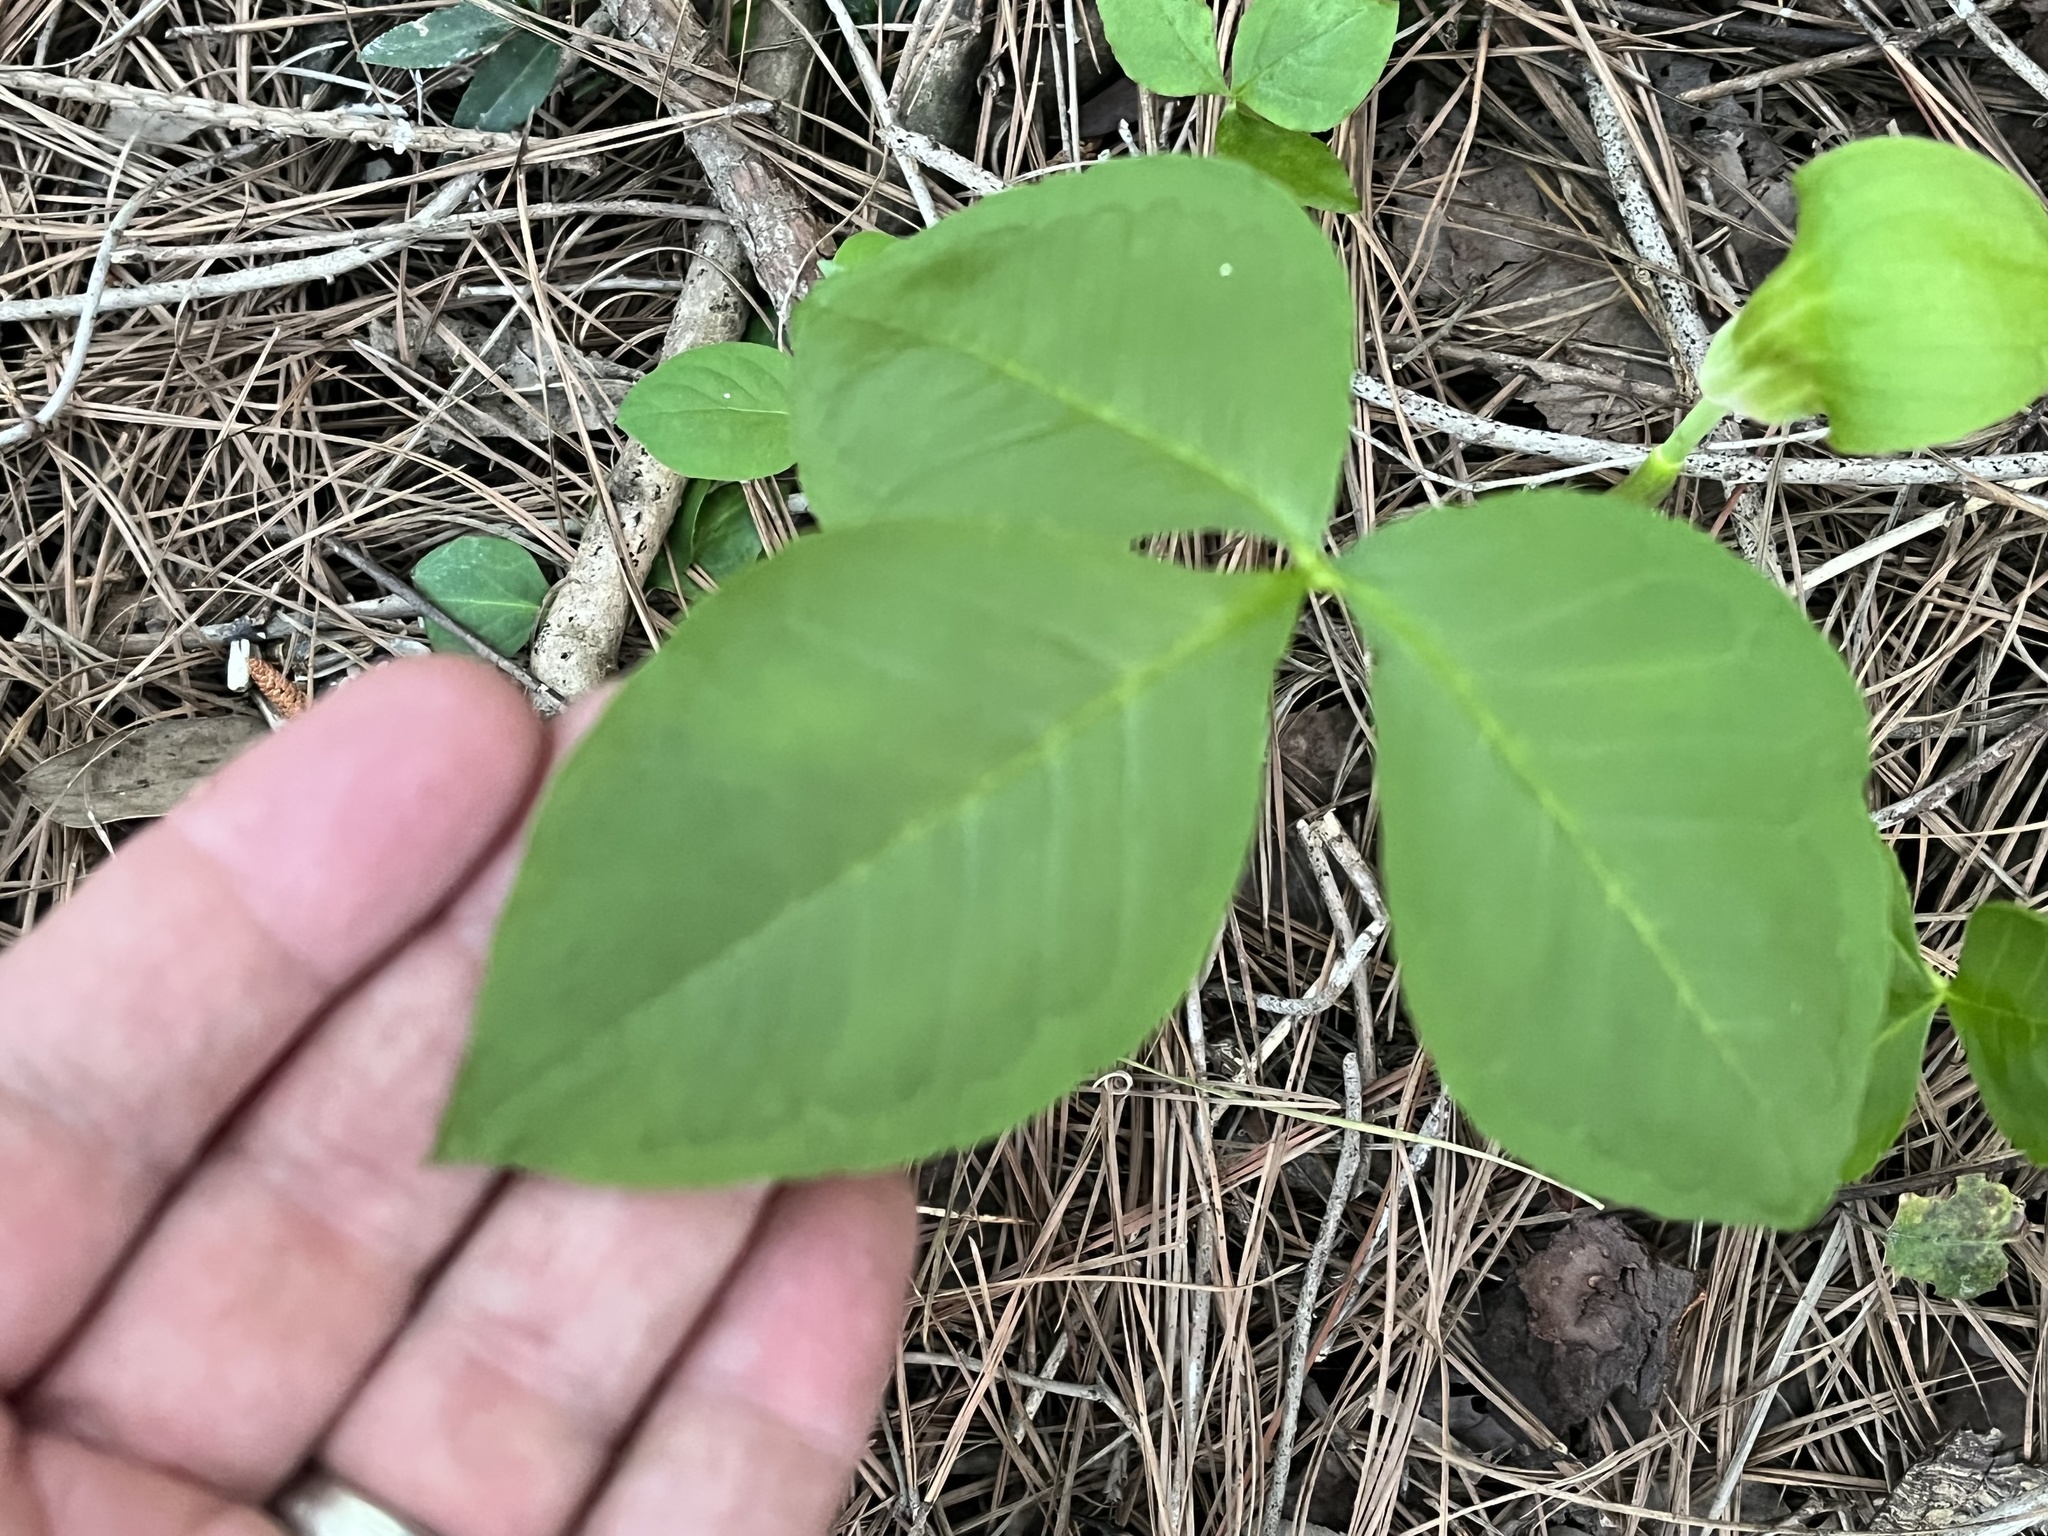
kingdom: Plantae
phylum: Tracheophyta
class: Liliopsida
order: Alismatales
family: Araceae
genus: Arisaema
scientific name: Arisaema pusillum
